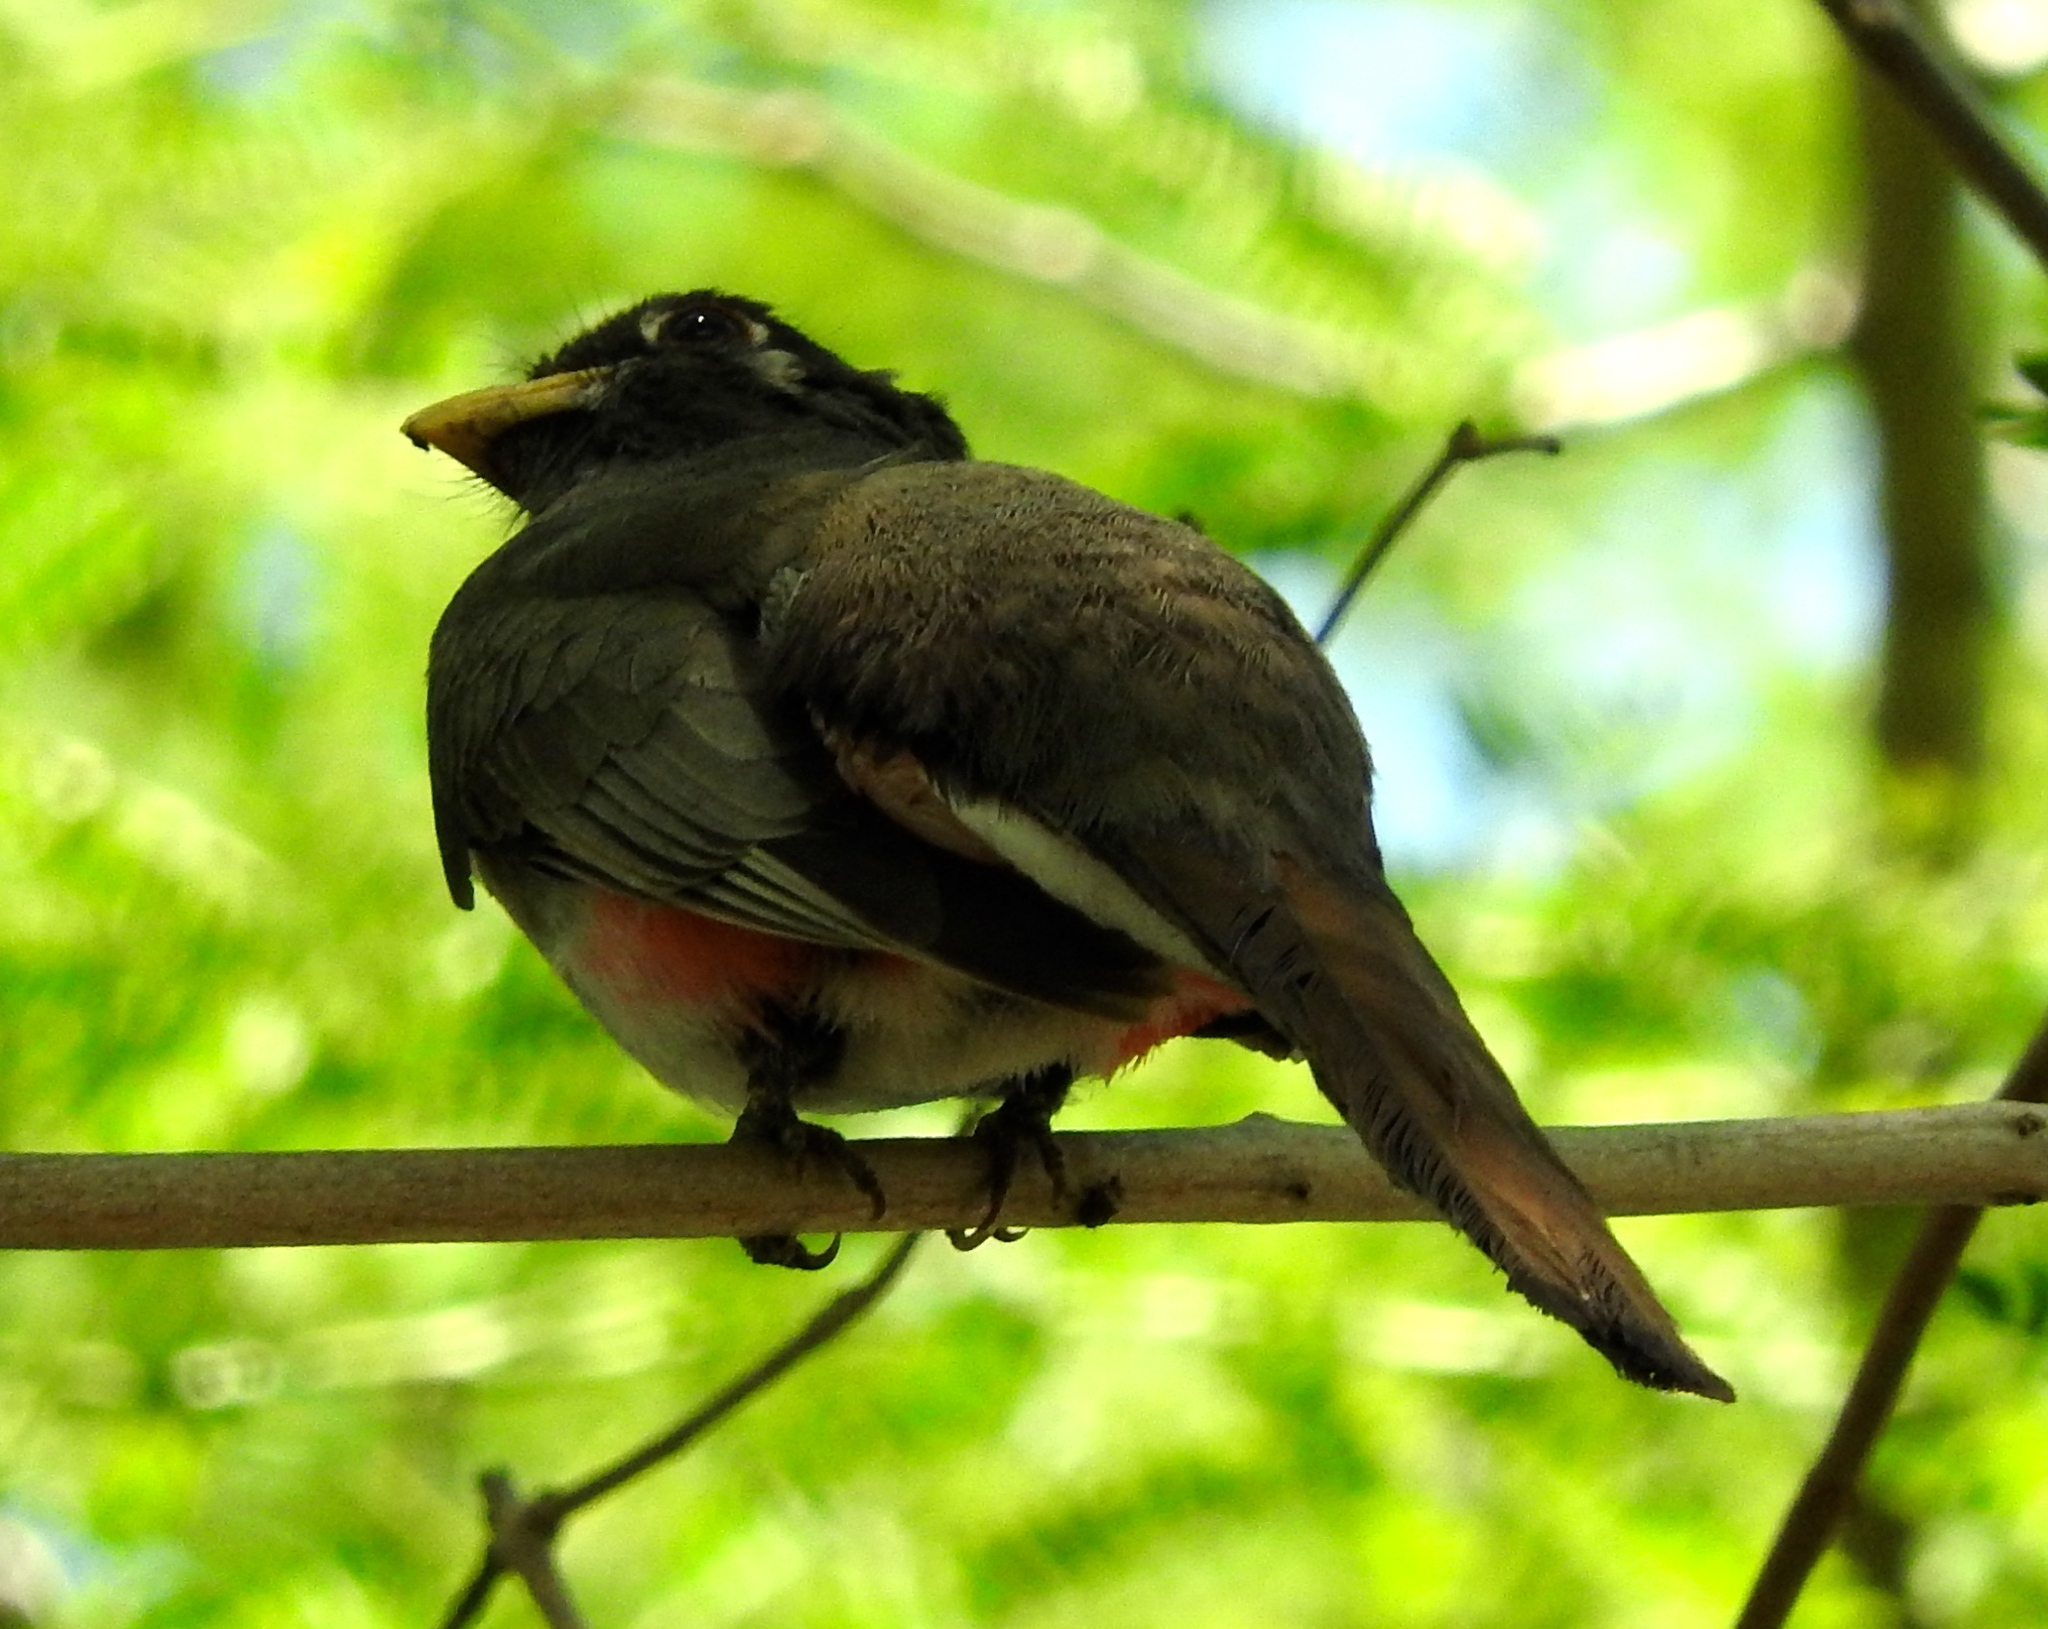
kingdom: Animalia
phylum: Chordata
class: Aves
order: Trogoniformes
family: Trogonidae
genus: Trogon
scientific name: Trogon elegans
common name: Elegant trogon
